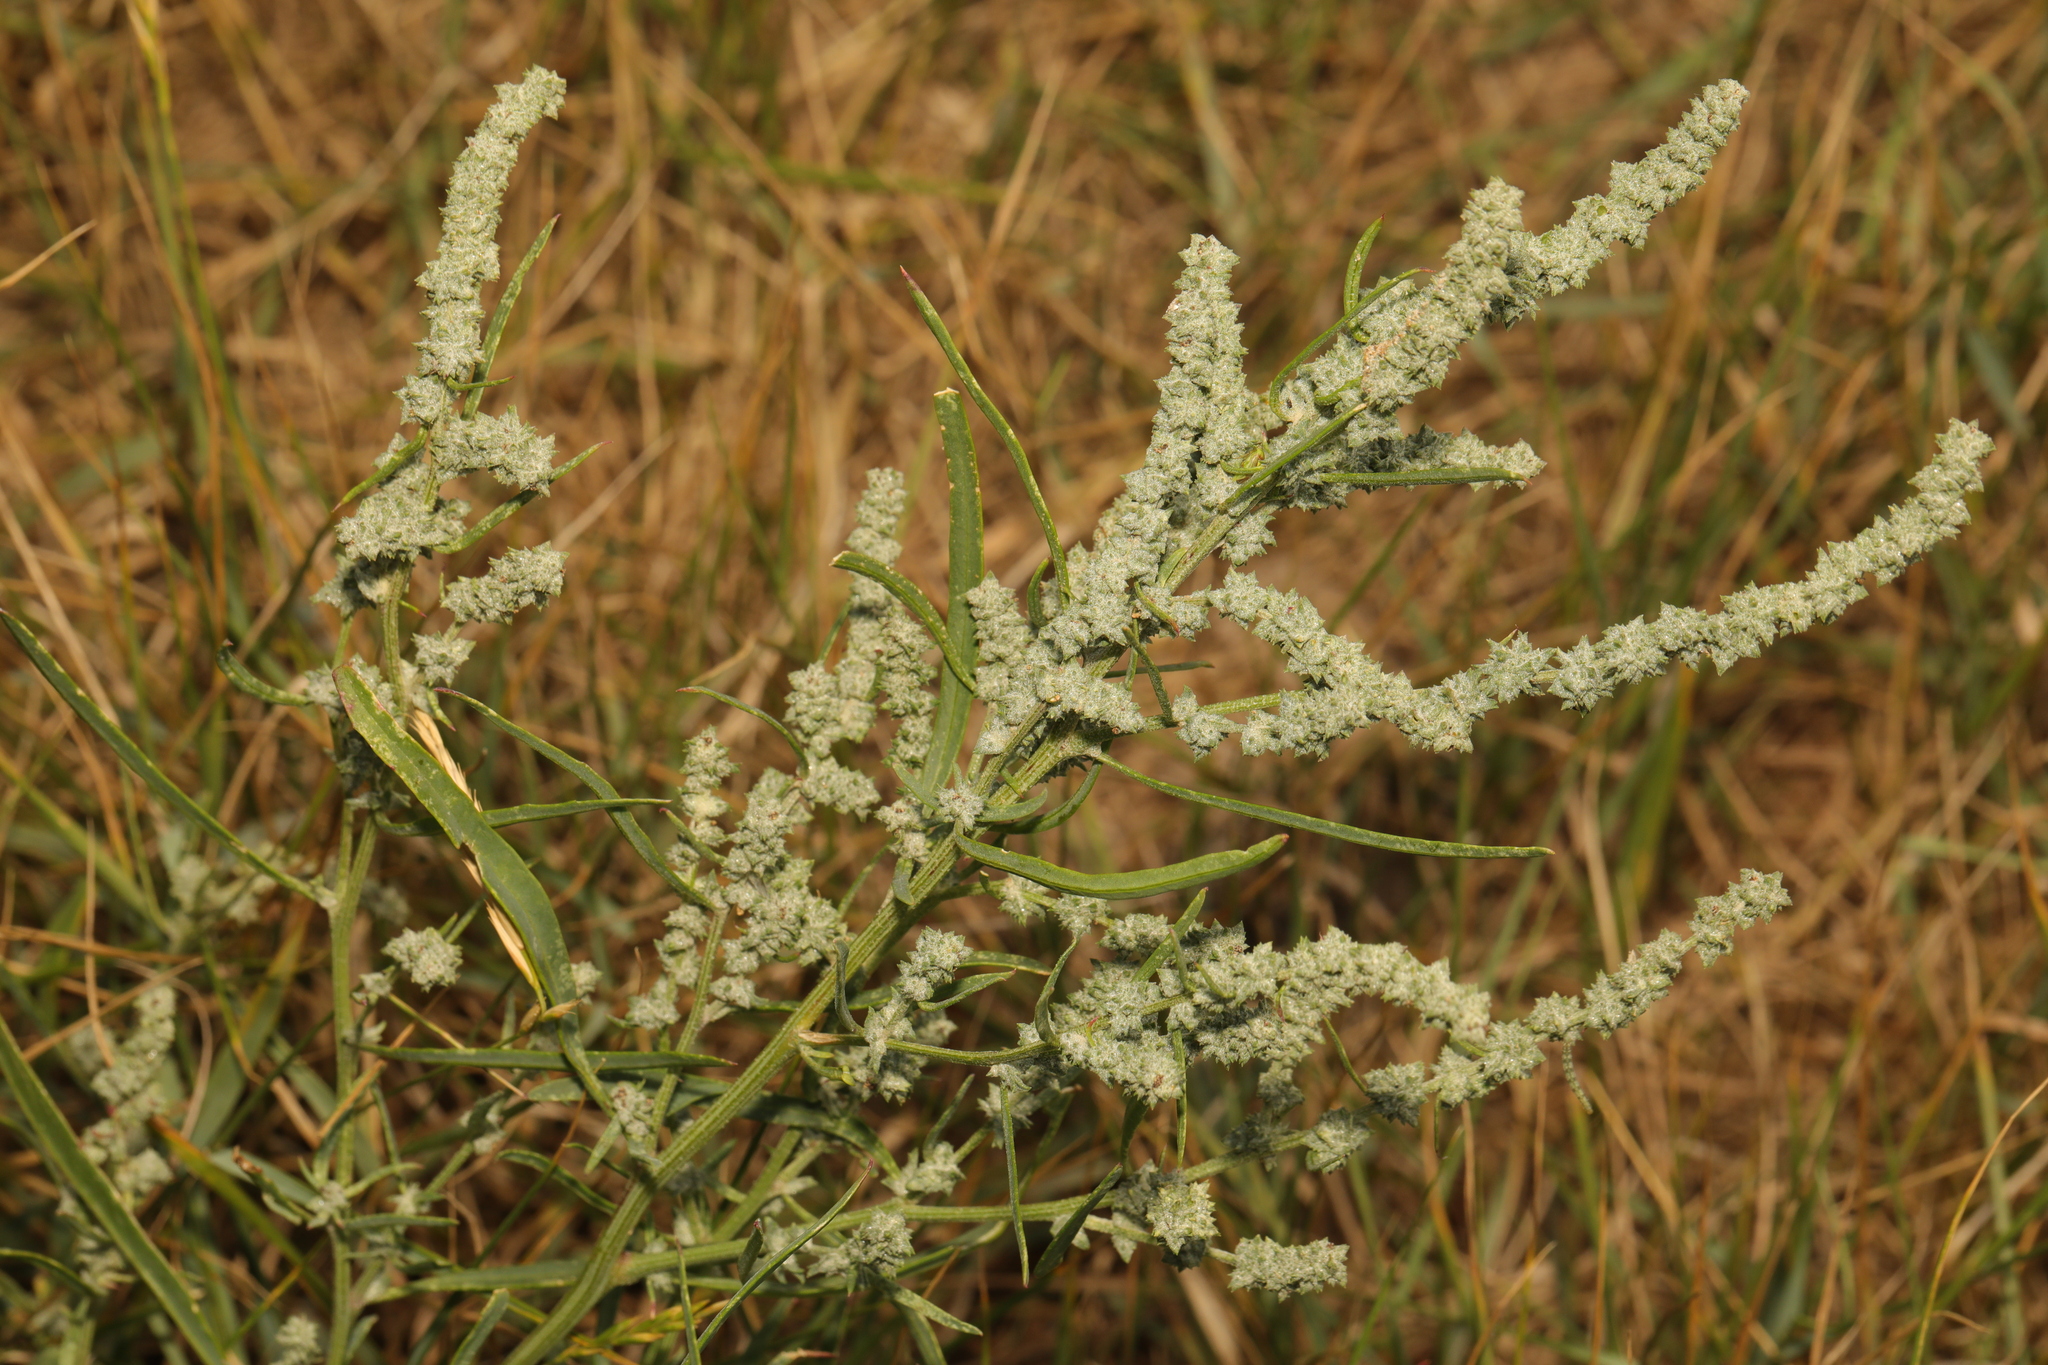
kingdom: Plantae
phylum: Tracheophyta
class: Magnoliopsida
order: Caryophyllales
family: Amaranthaceae
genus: Atriplex
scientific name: Atriplex littoralis
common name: Grass-leaved orache
